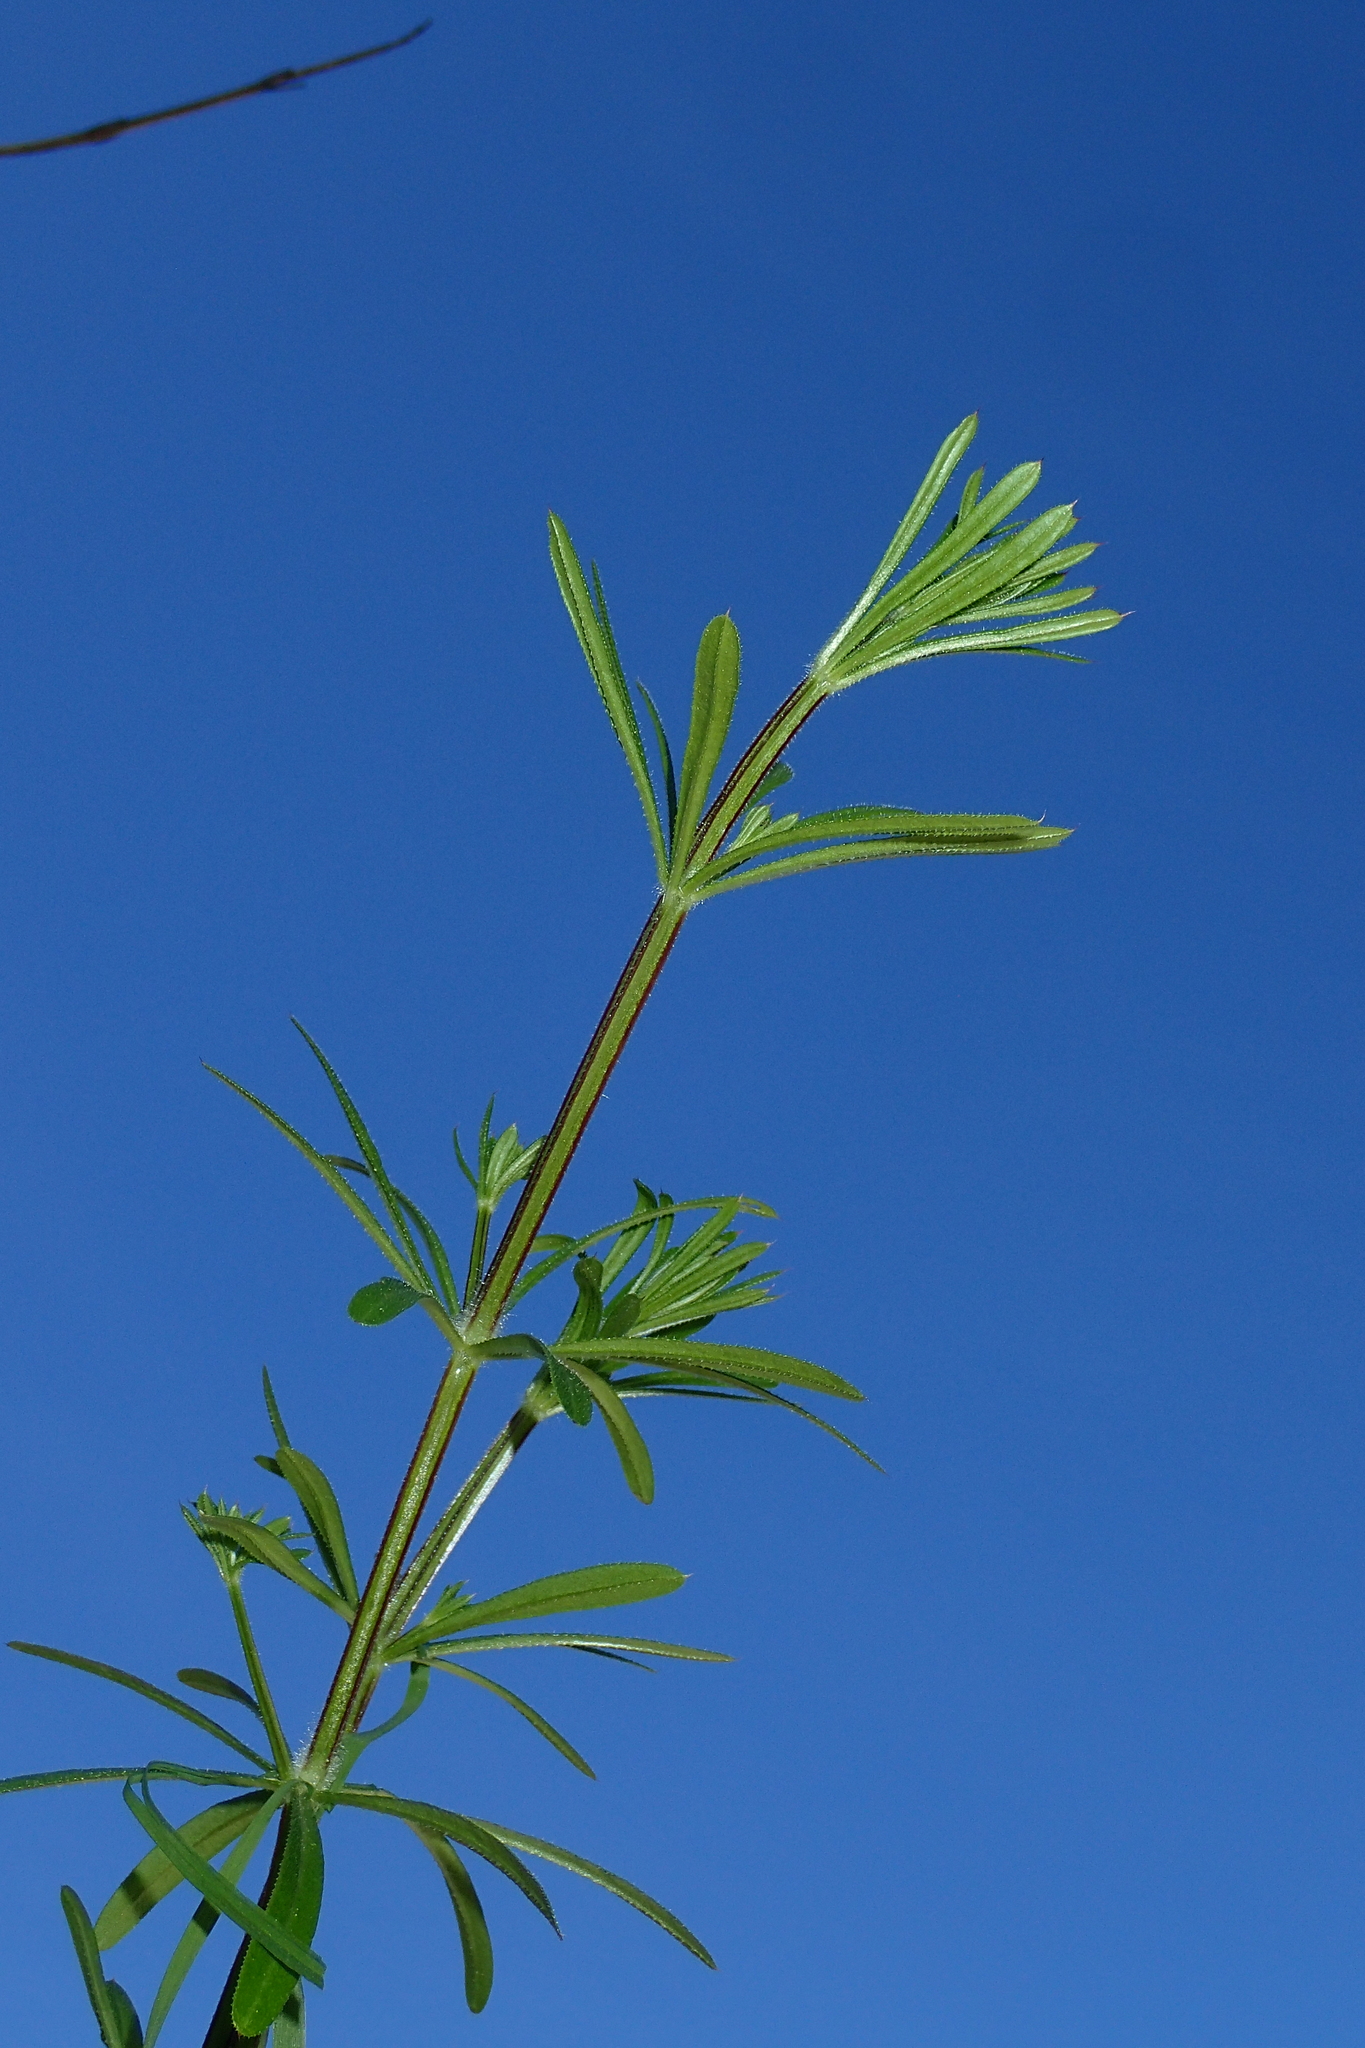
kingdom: Plantae
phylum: Tracheophyta
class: Magnoliopsida
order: Gentianales
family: Rubiaceae
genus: Galium
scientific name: Galium aparine
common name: Cleavers
